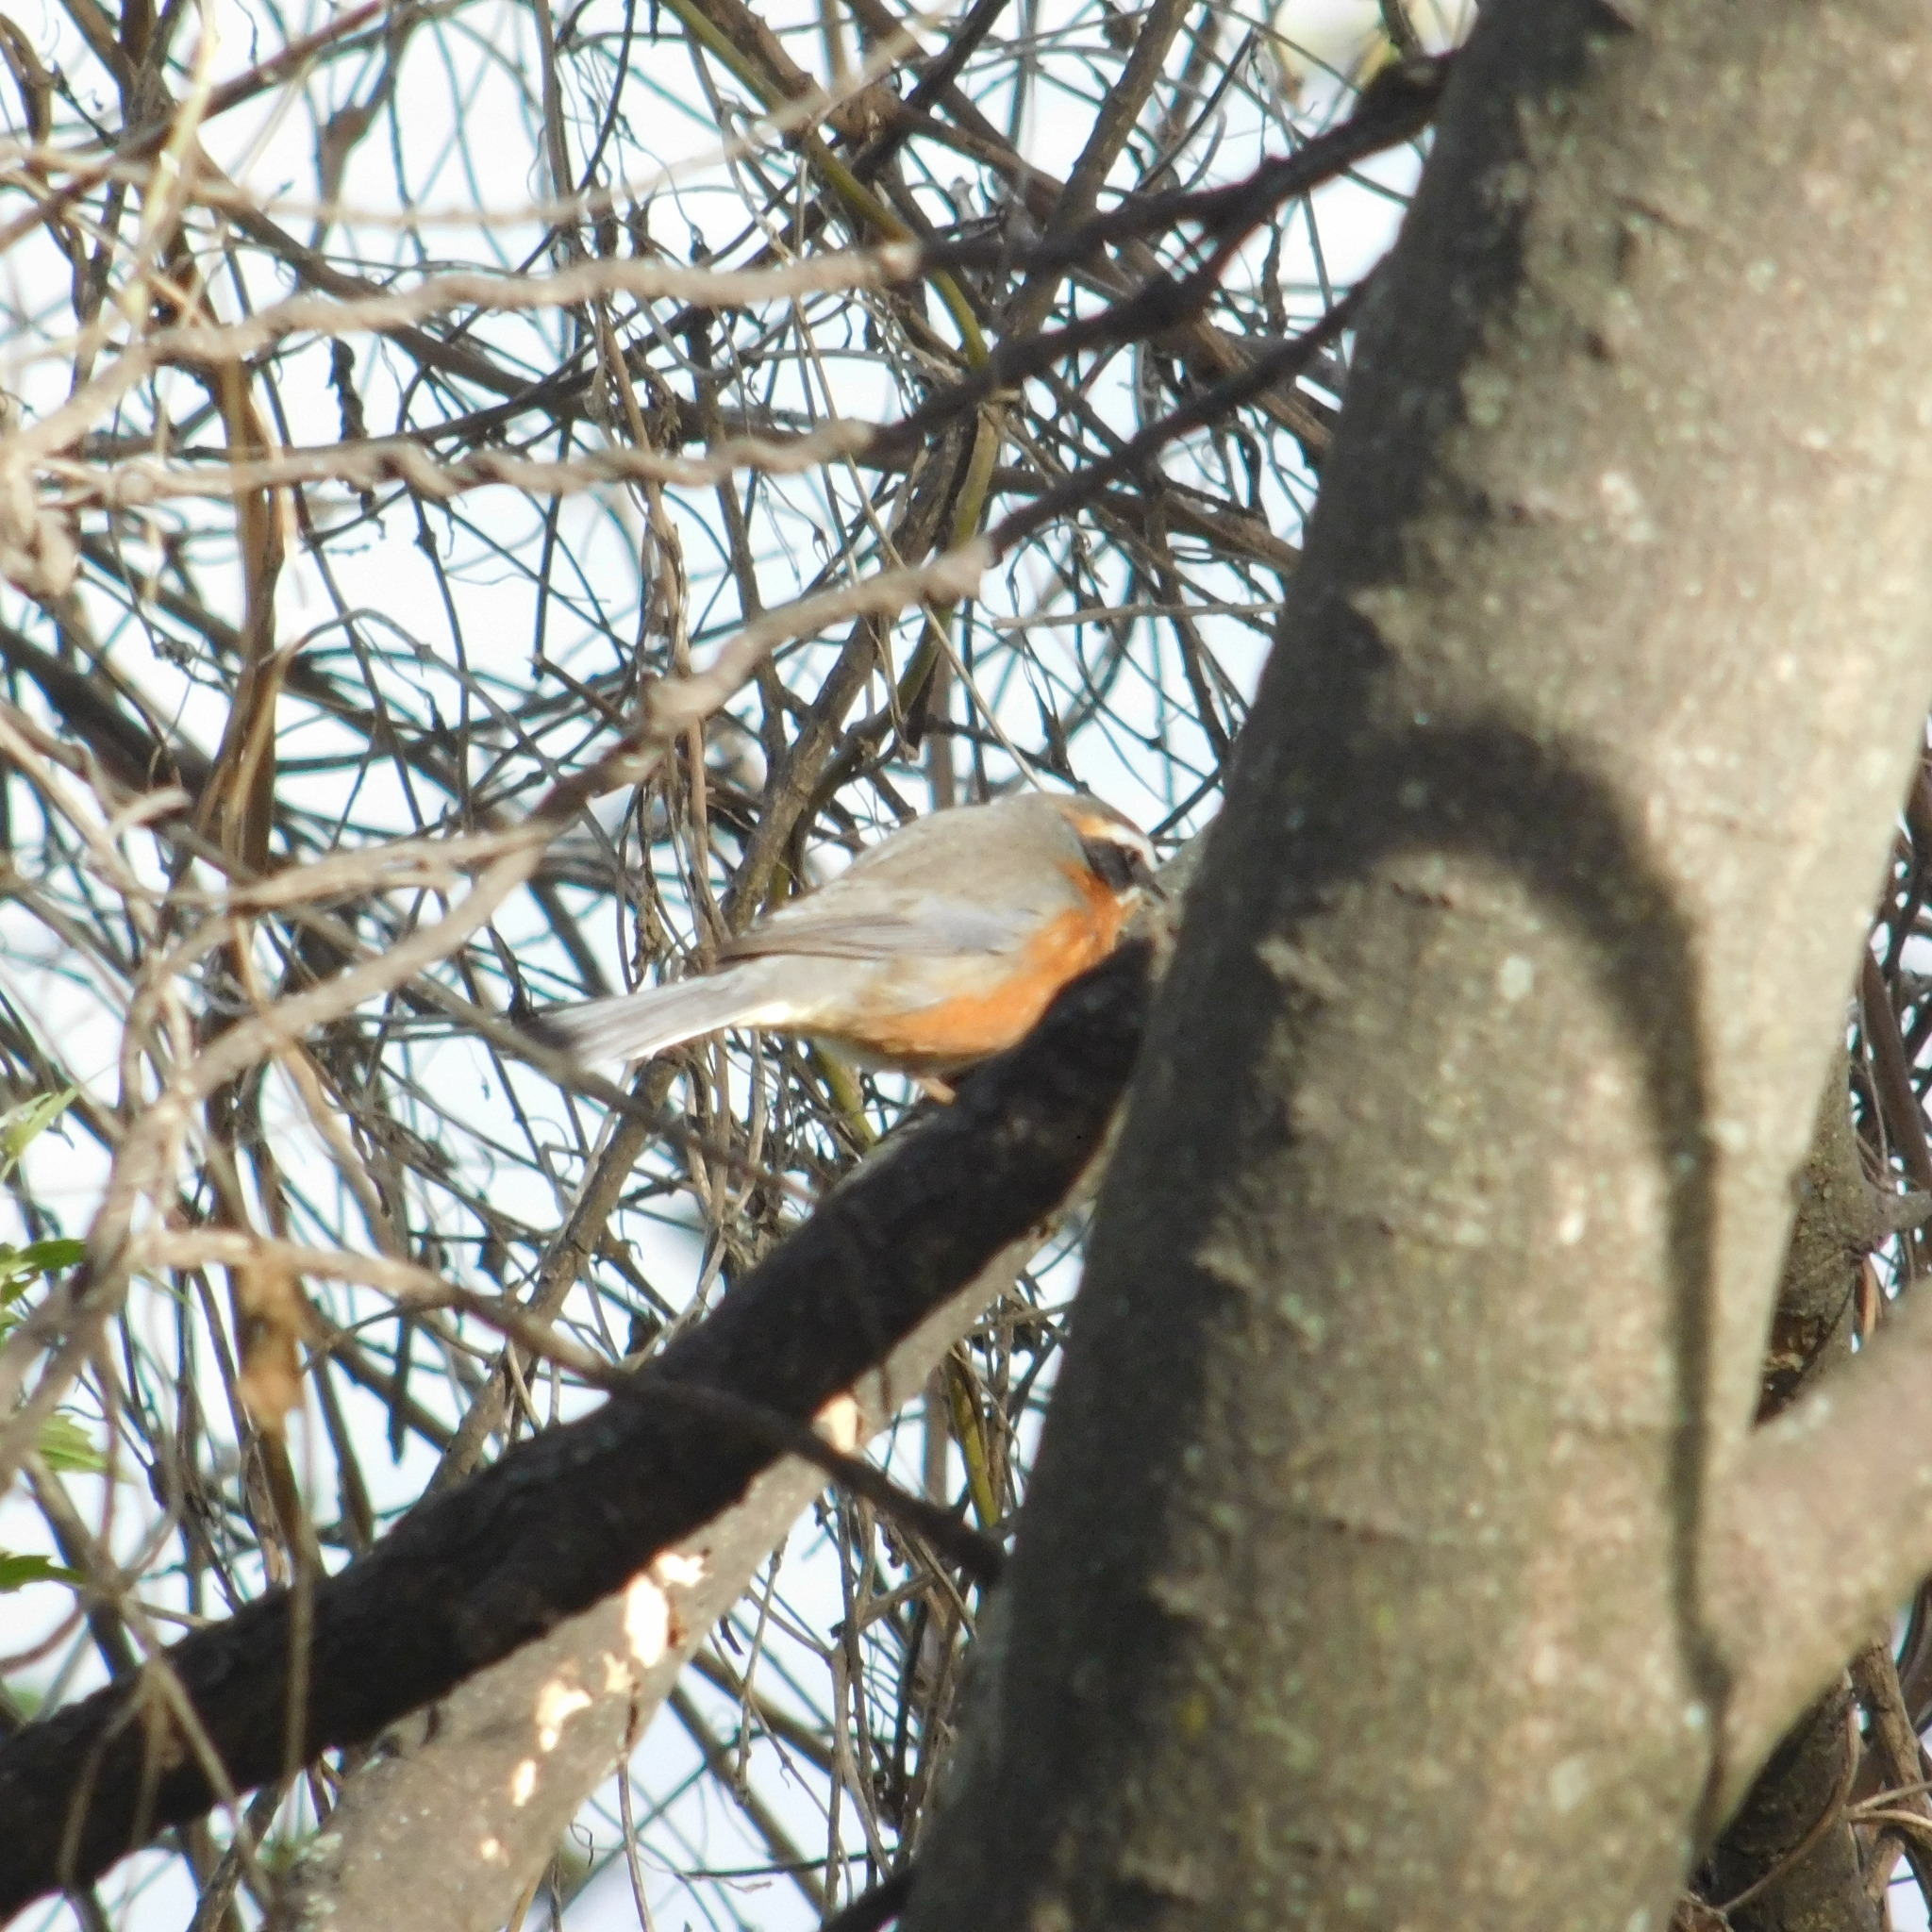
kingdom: Animalia
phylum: Chordata
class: Aves
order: Passeriformes
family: Thraupidae
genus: Poospiza
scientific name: Poospiza nigrorufa
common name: Black-and-rufous warbling finch
